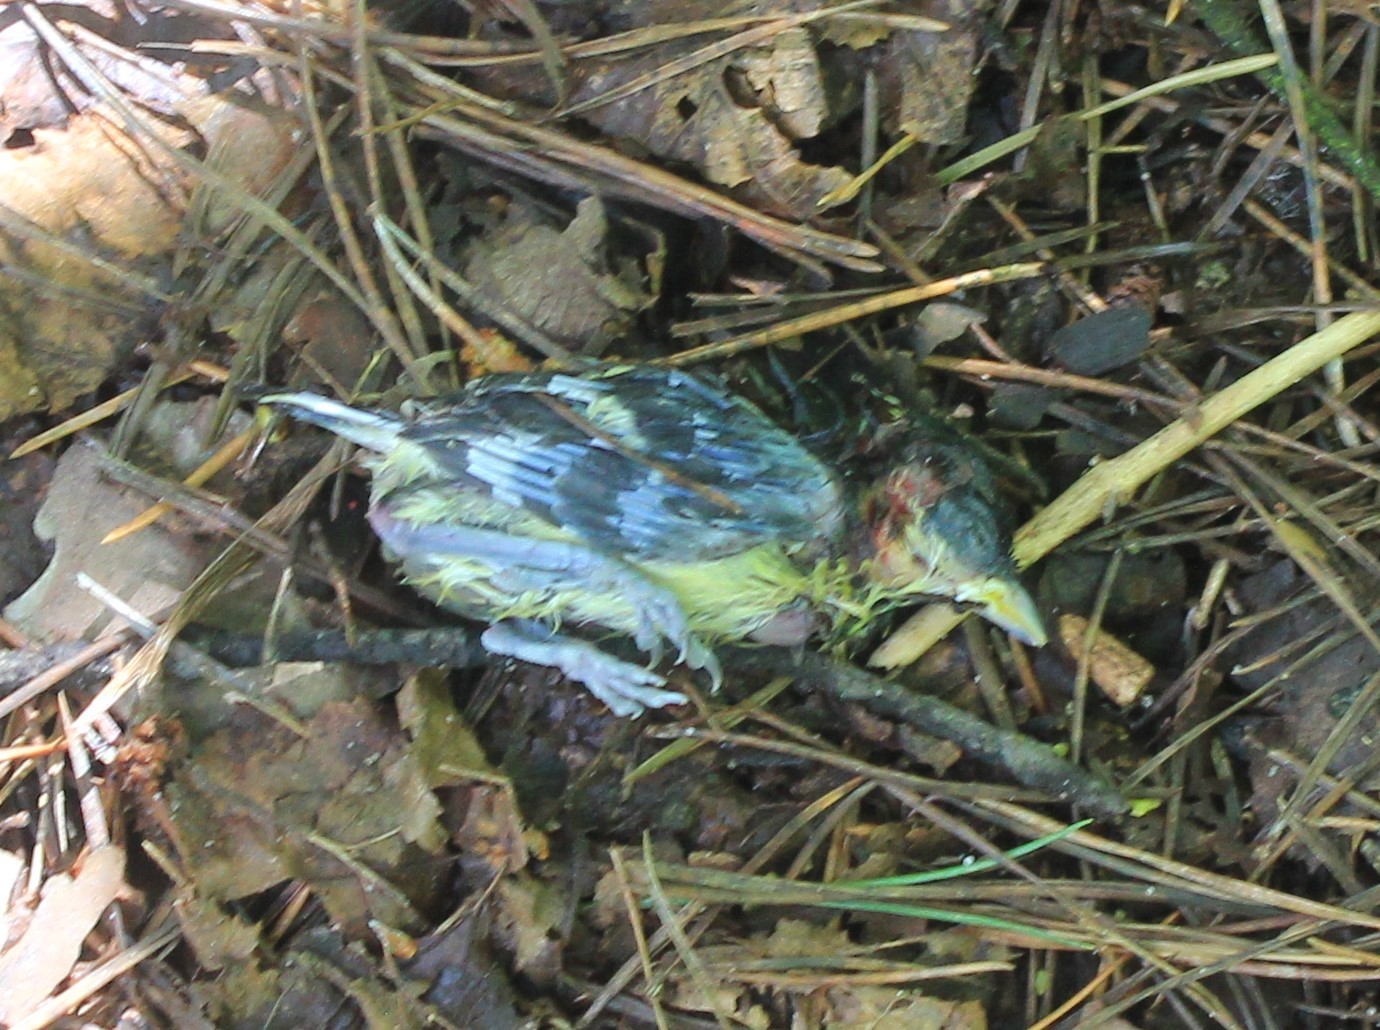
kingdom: Animalia
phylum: Chordata
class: Aves
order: Passeriformes
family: Paridae
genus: Parus
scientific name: Parus major
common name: Great tit
